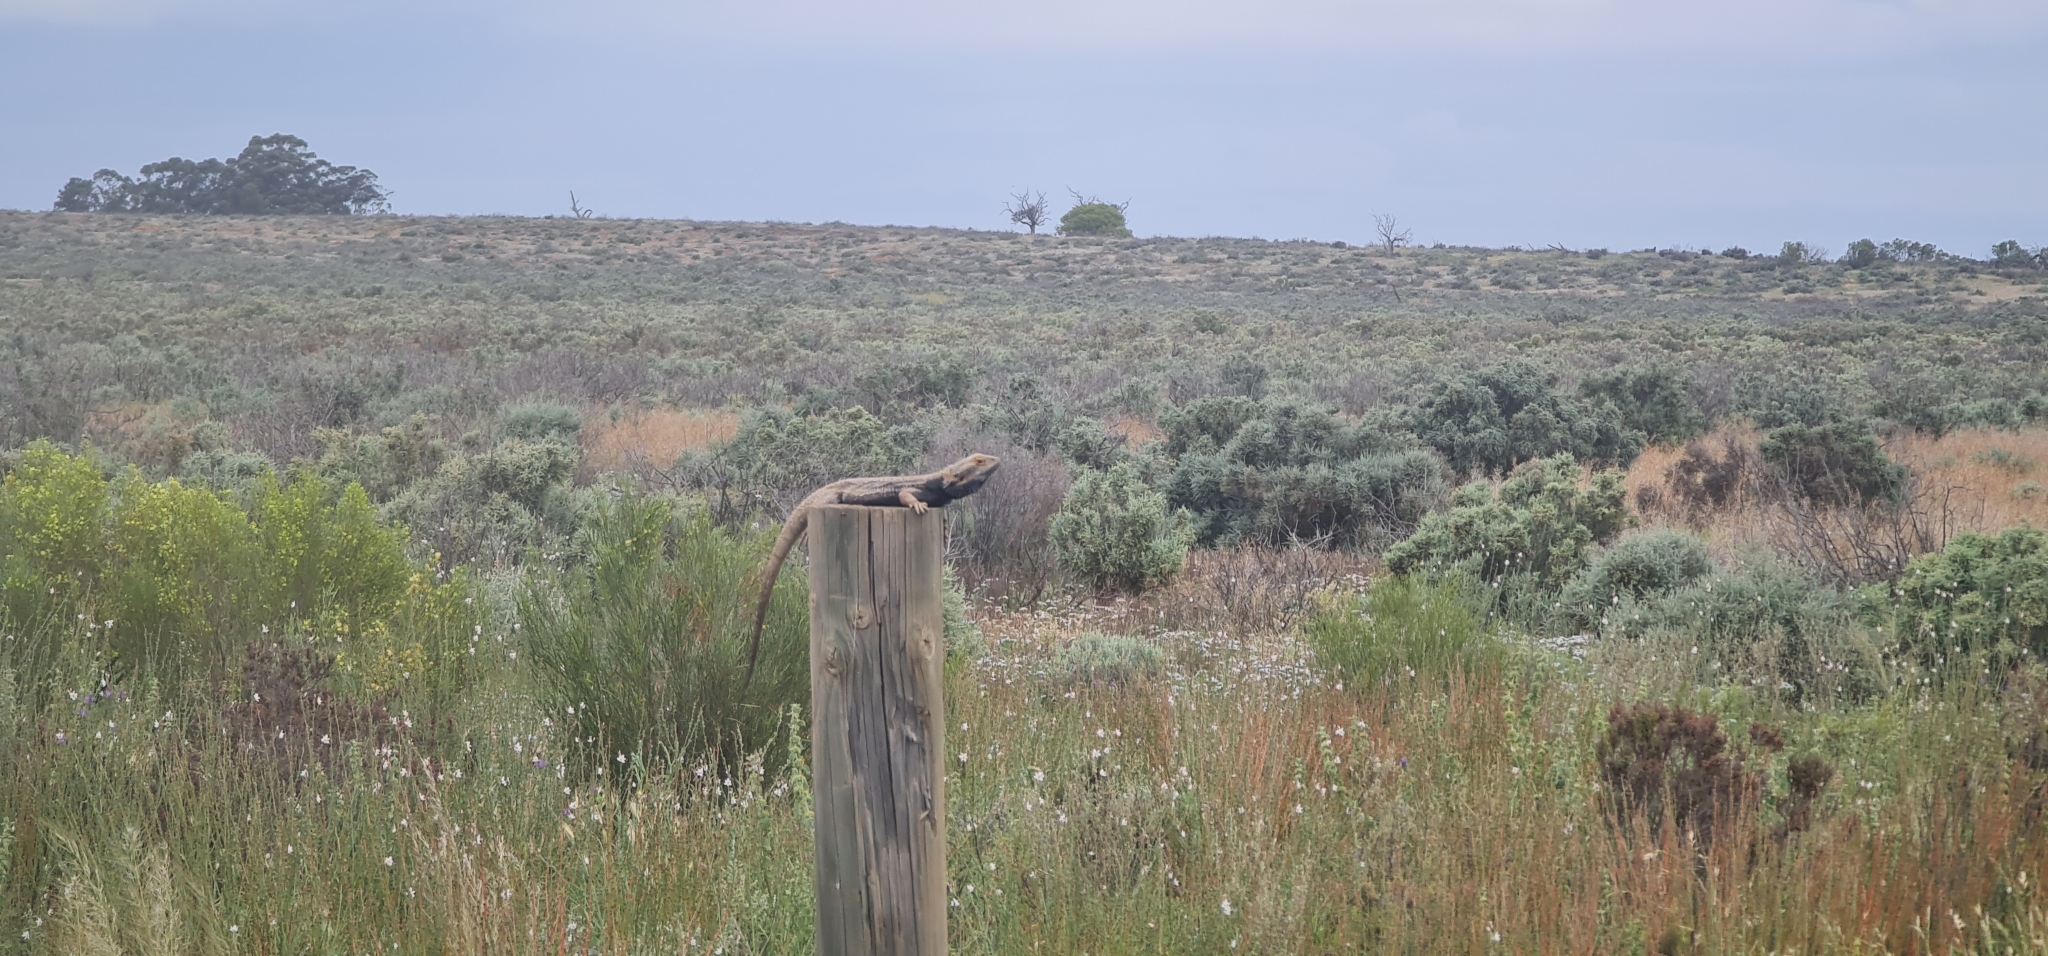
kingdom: Animalia
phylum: Chordata
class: Squamata
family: Agamidae
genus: Pogona
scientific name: Pogona vitticeps
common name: Central bearded dragon
